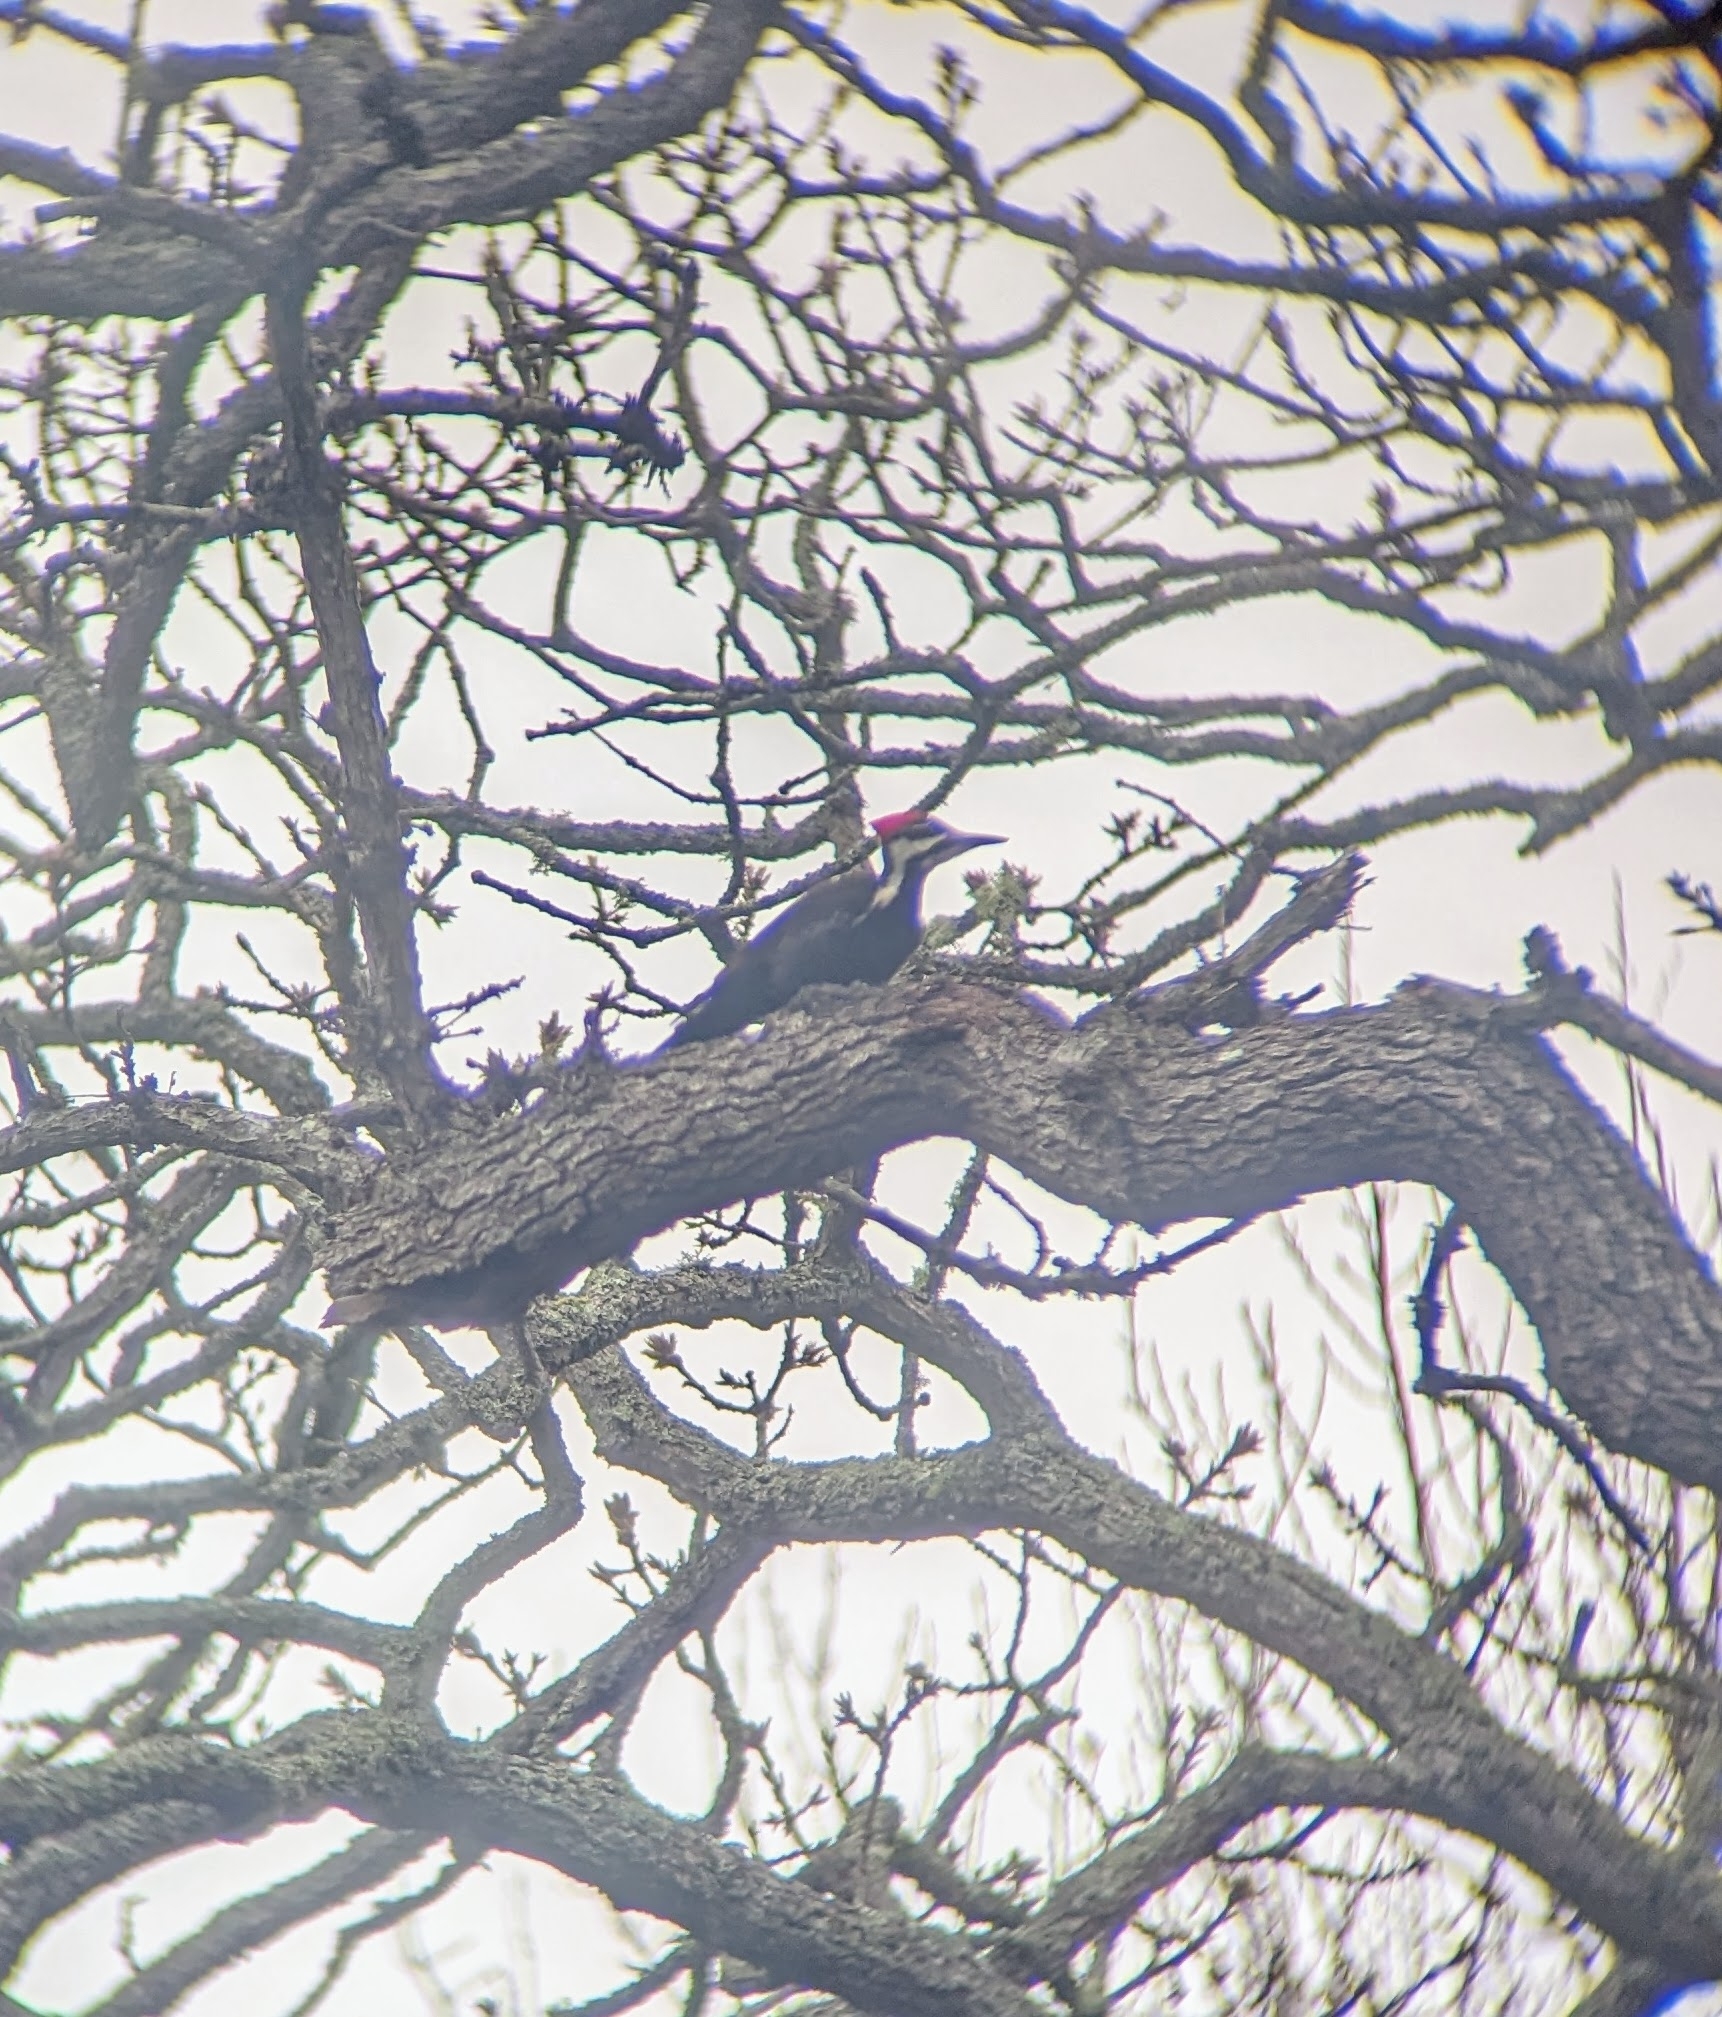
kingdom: Animalia
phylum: Chordata
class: Aves
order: Piciformes
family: Picidae
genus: Dryocopus
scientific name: Dryocopus pileatus
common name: Pileated woodpecker
